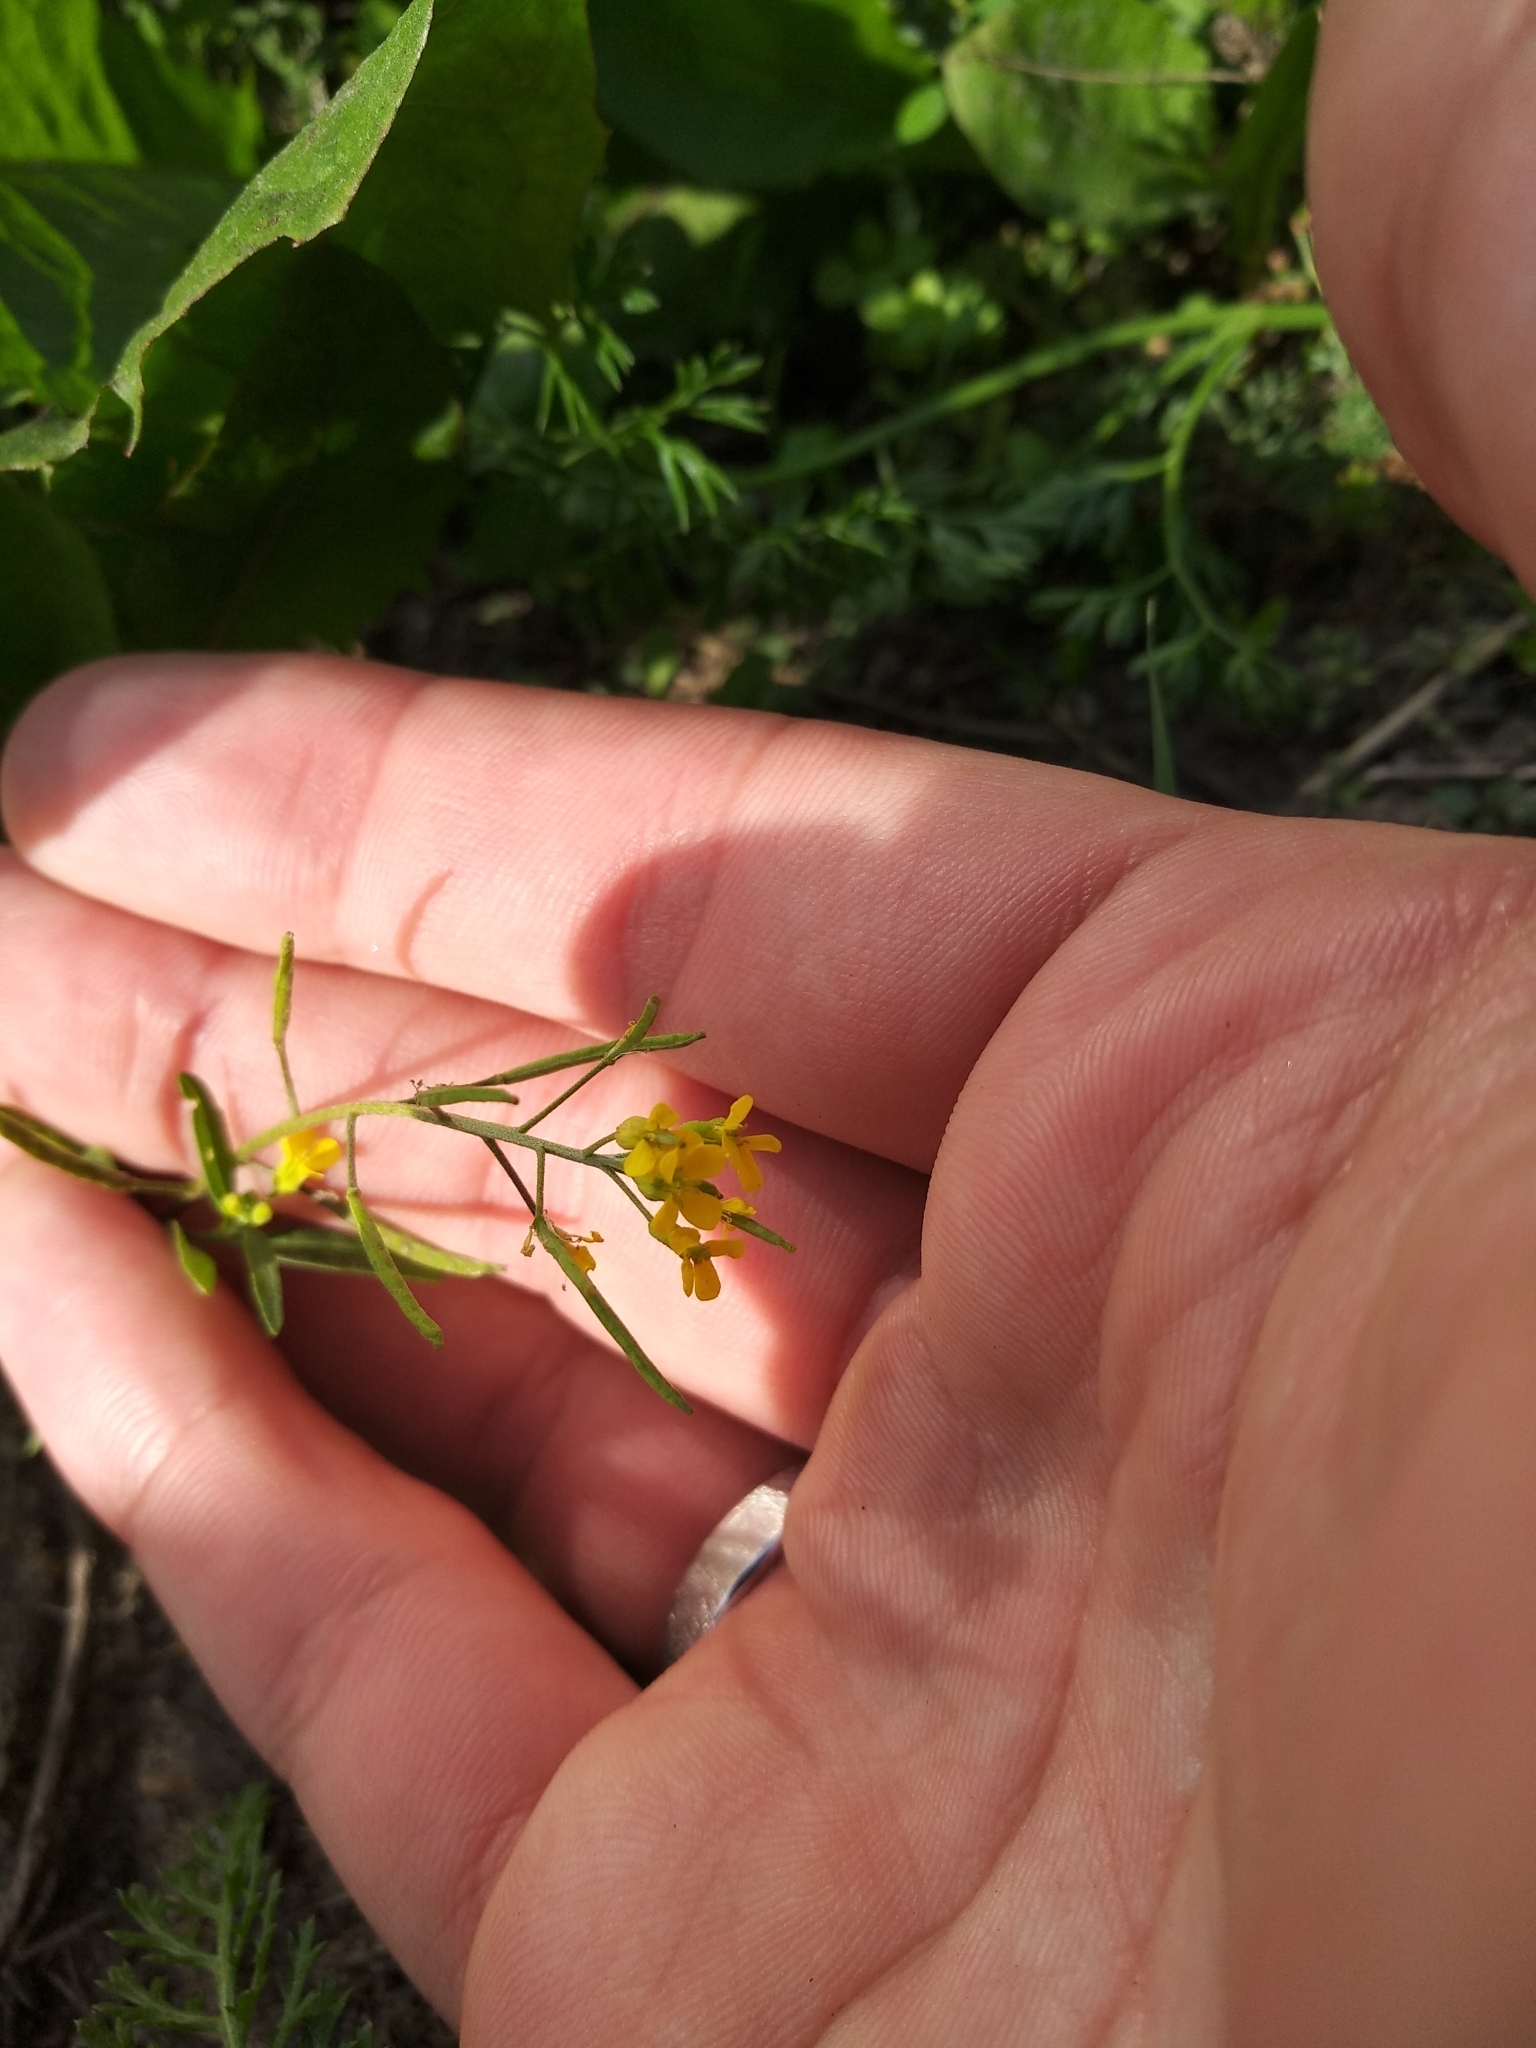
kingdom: Plantae
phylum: Tracheophyta
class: Magnoliopsida
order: Brassicales
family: Brassicaceae
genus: Erysimum
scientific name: Erysimum cheiranthoides
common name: Treacle mustard
